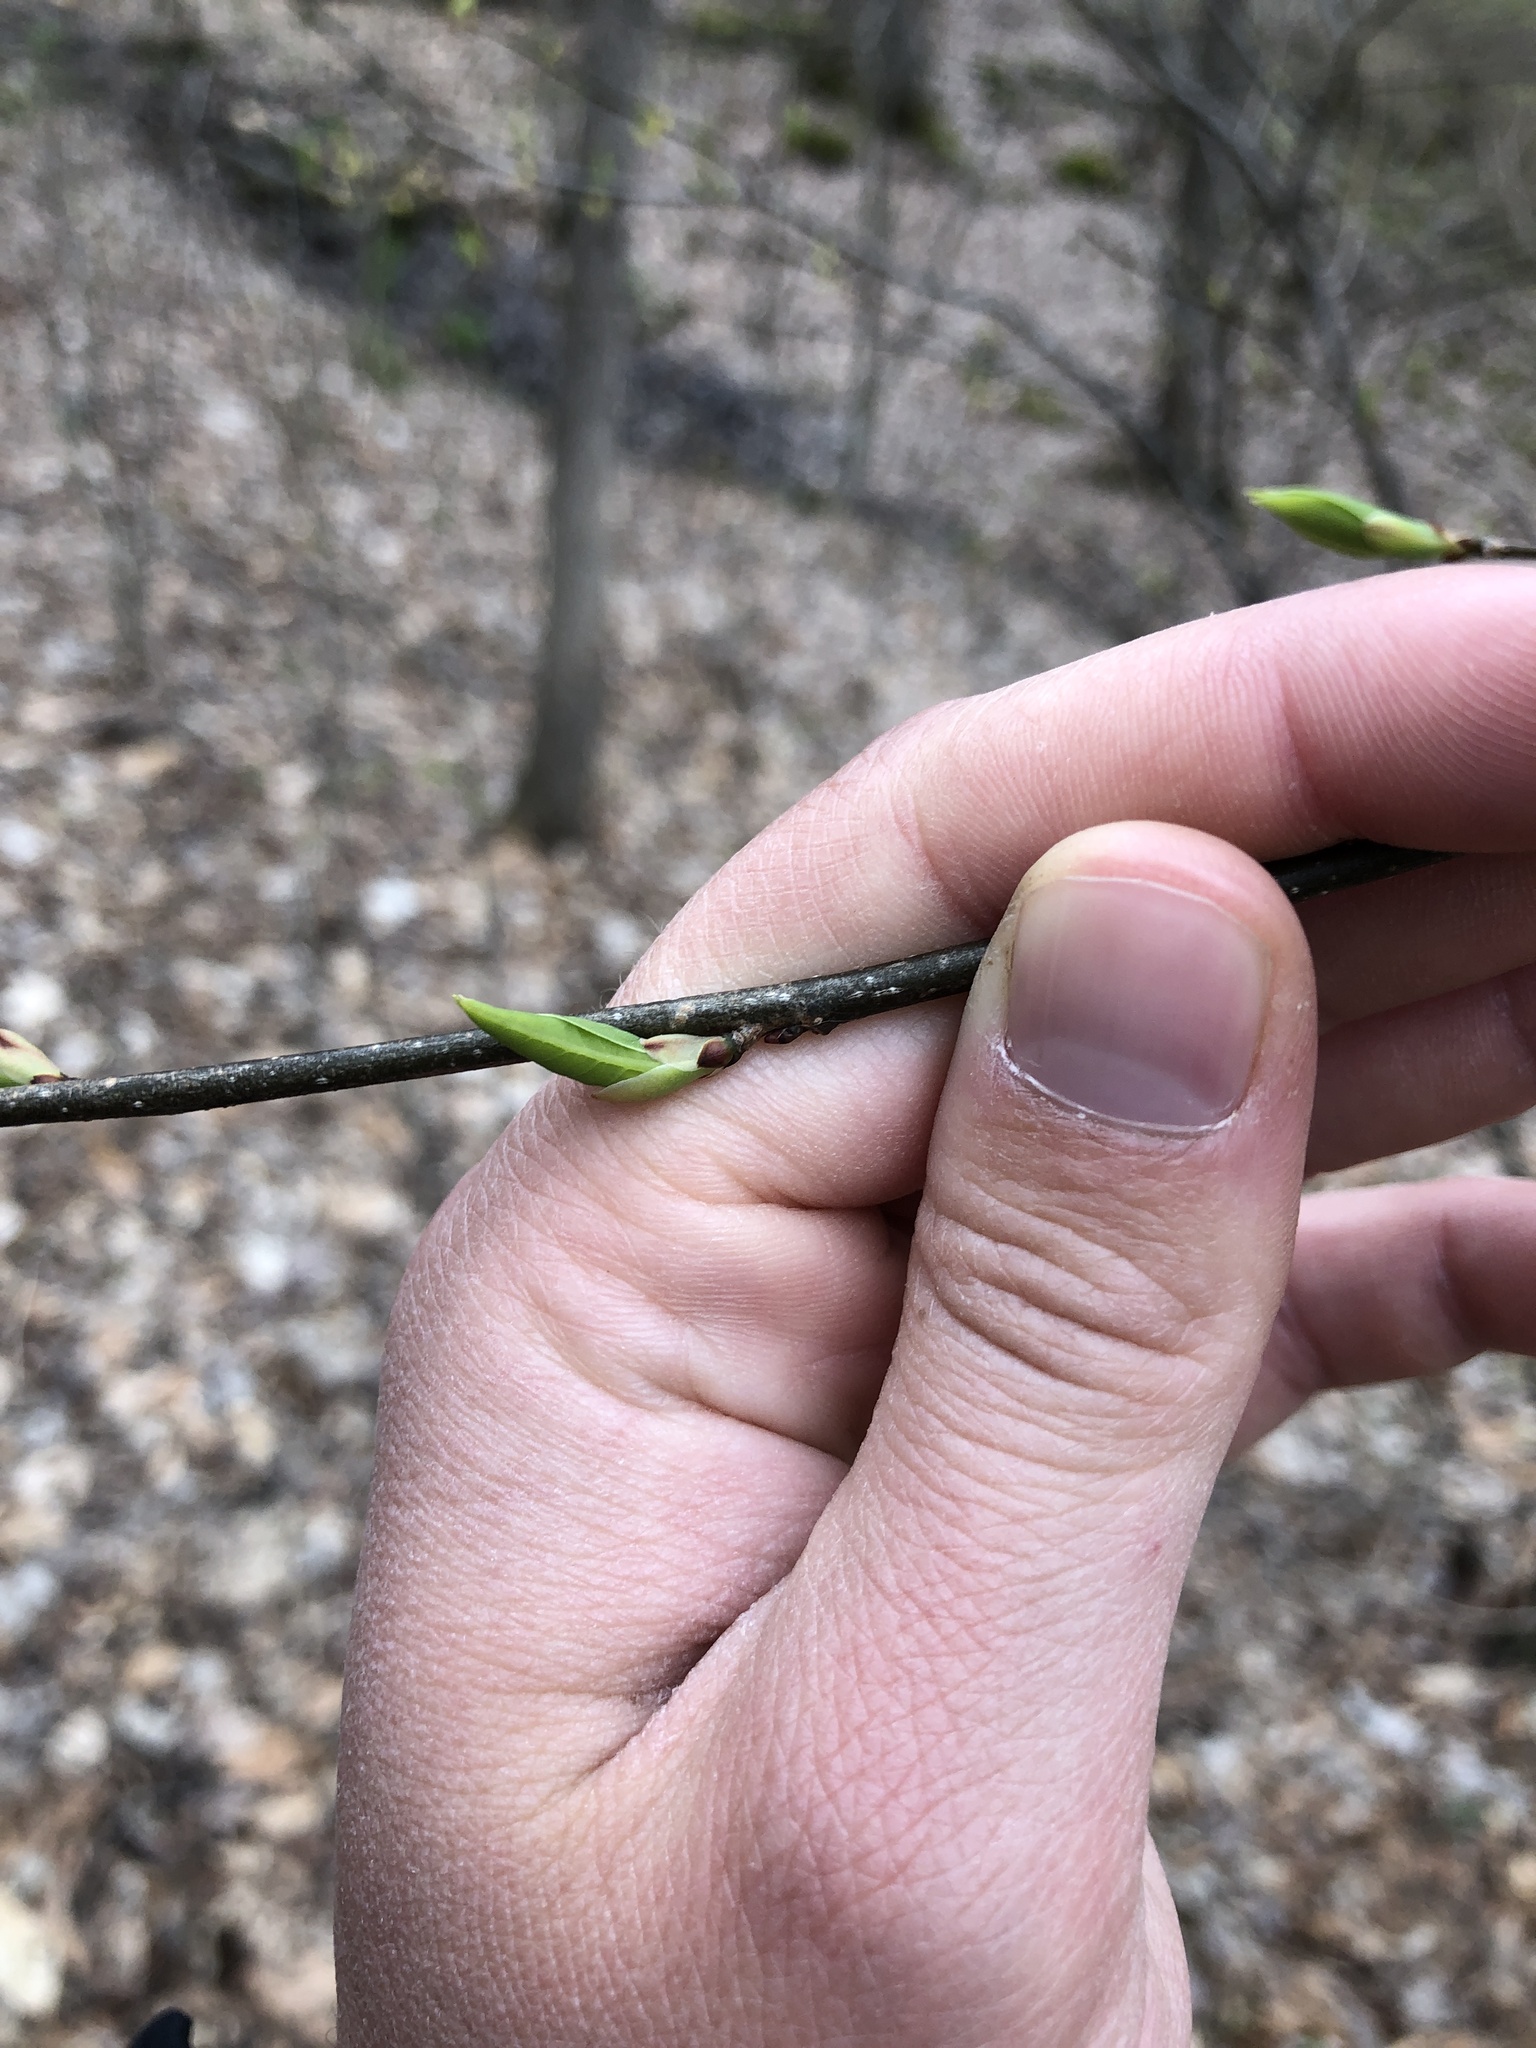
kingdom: Plantae
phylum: Tracheophyta
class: Magnoliopsida
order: Laurales
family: Lauraceae
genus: Lindera
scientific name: Lindera benzoin
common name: Spicebush
